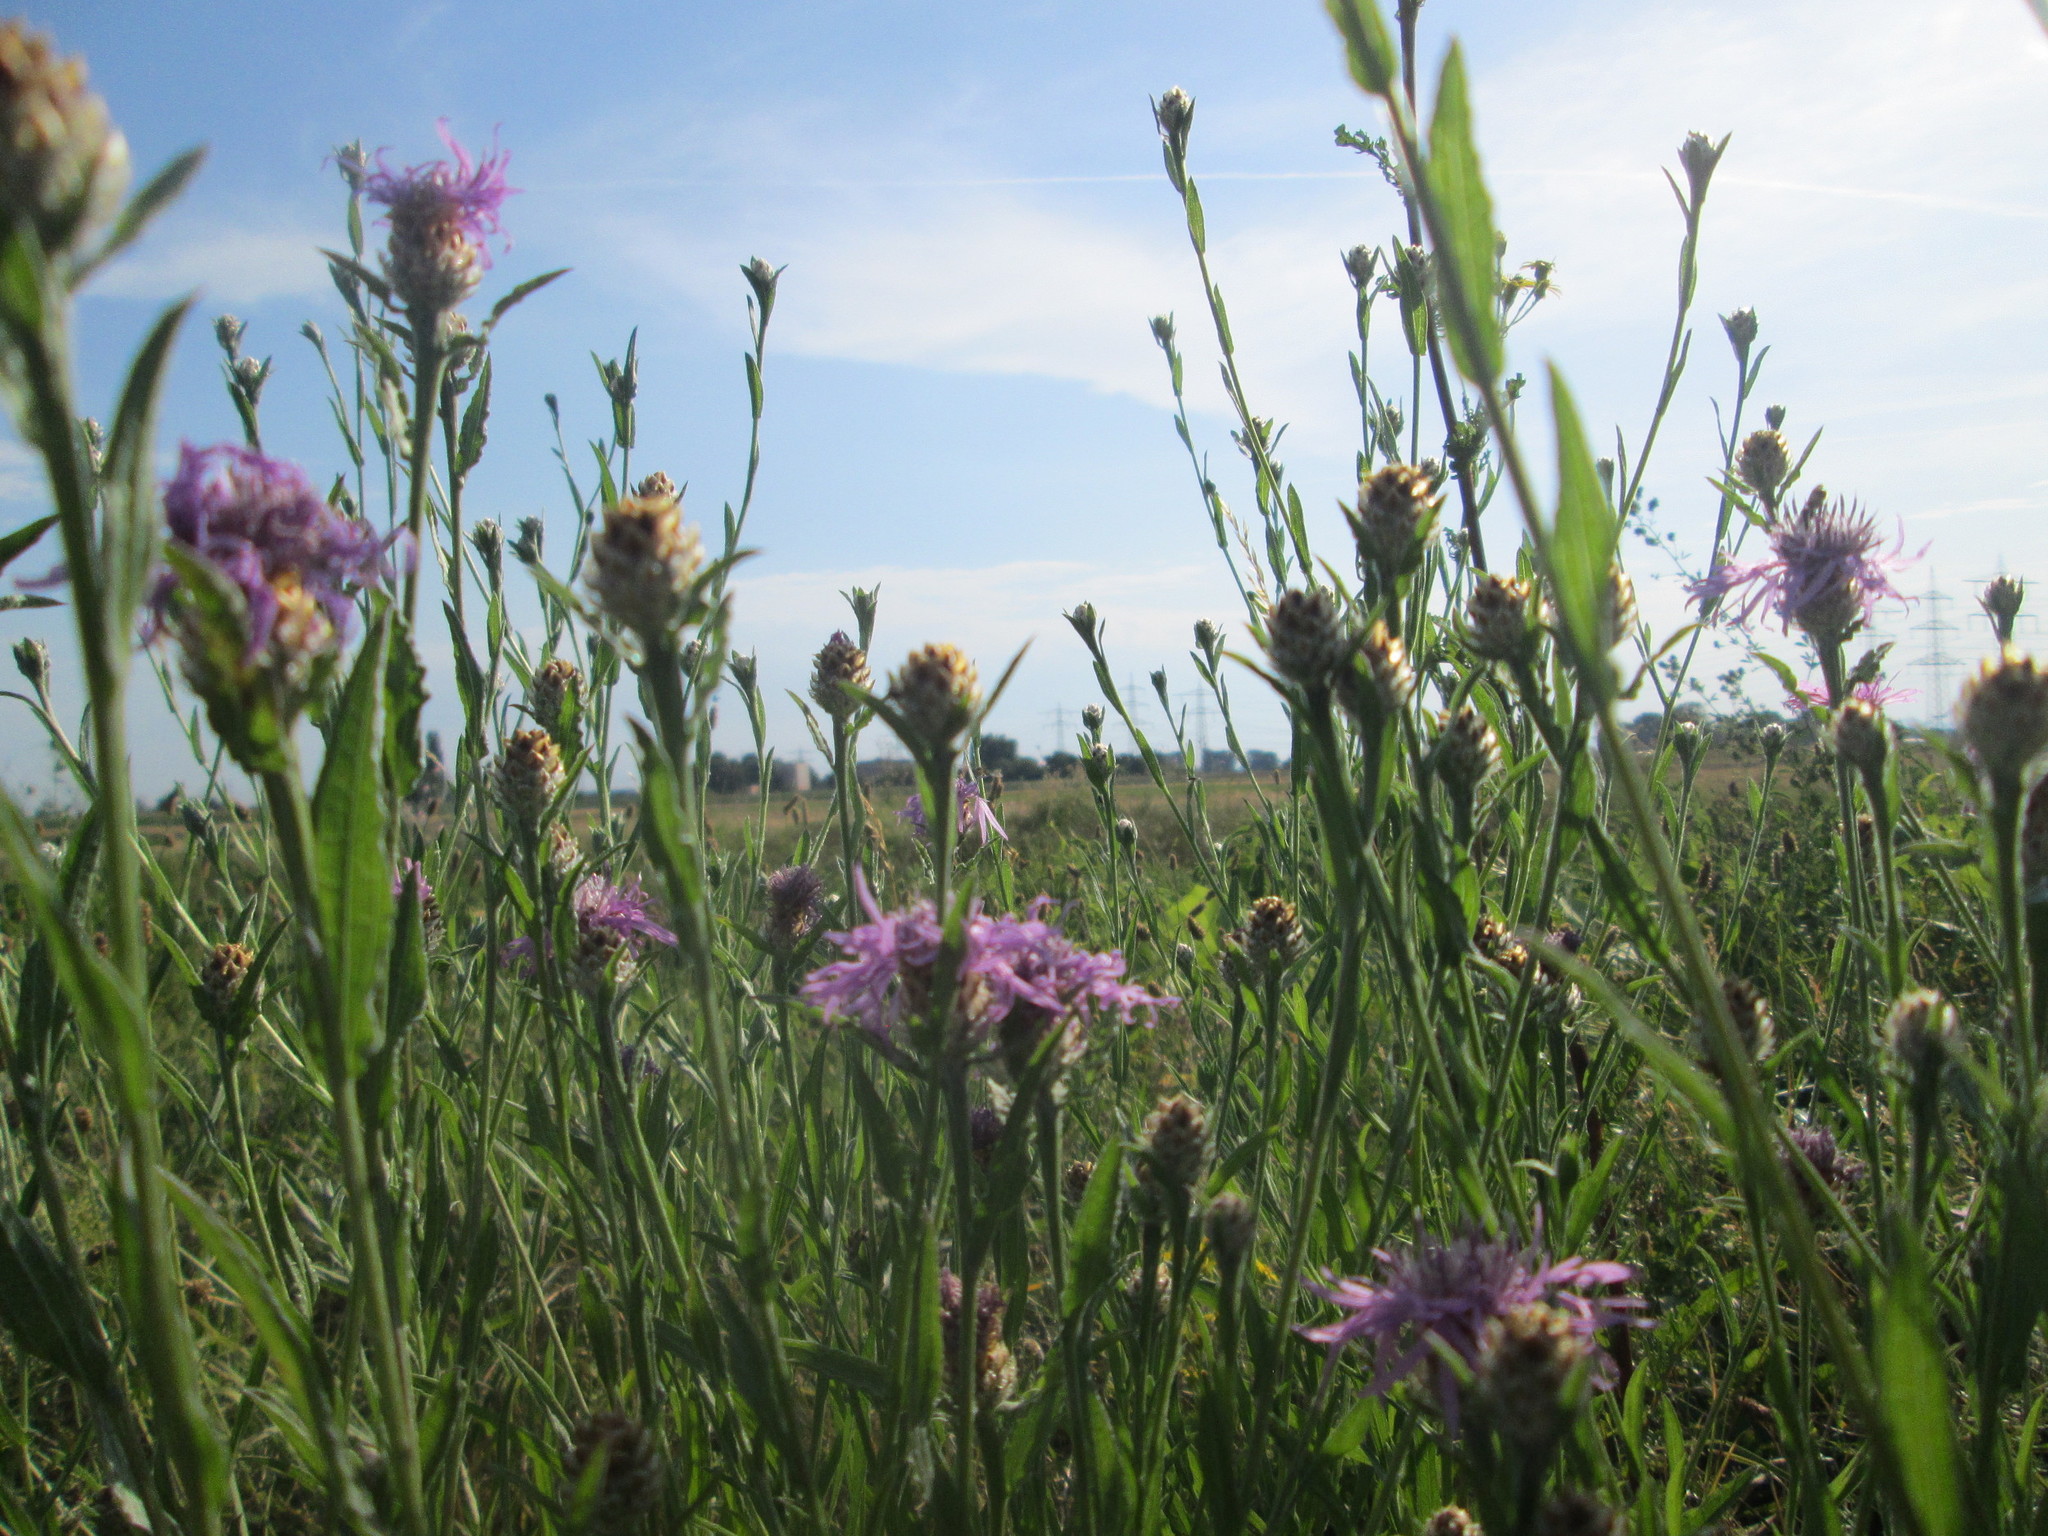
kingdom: Plantae
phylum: Tracheophyta
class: Magnoliopsida
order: Asterales
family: Asteraceae
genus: Centaurea
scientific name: Centaurea jacea
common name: Brown knapweed
